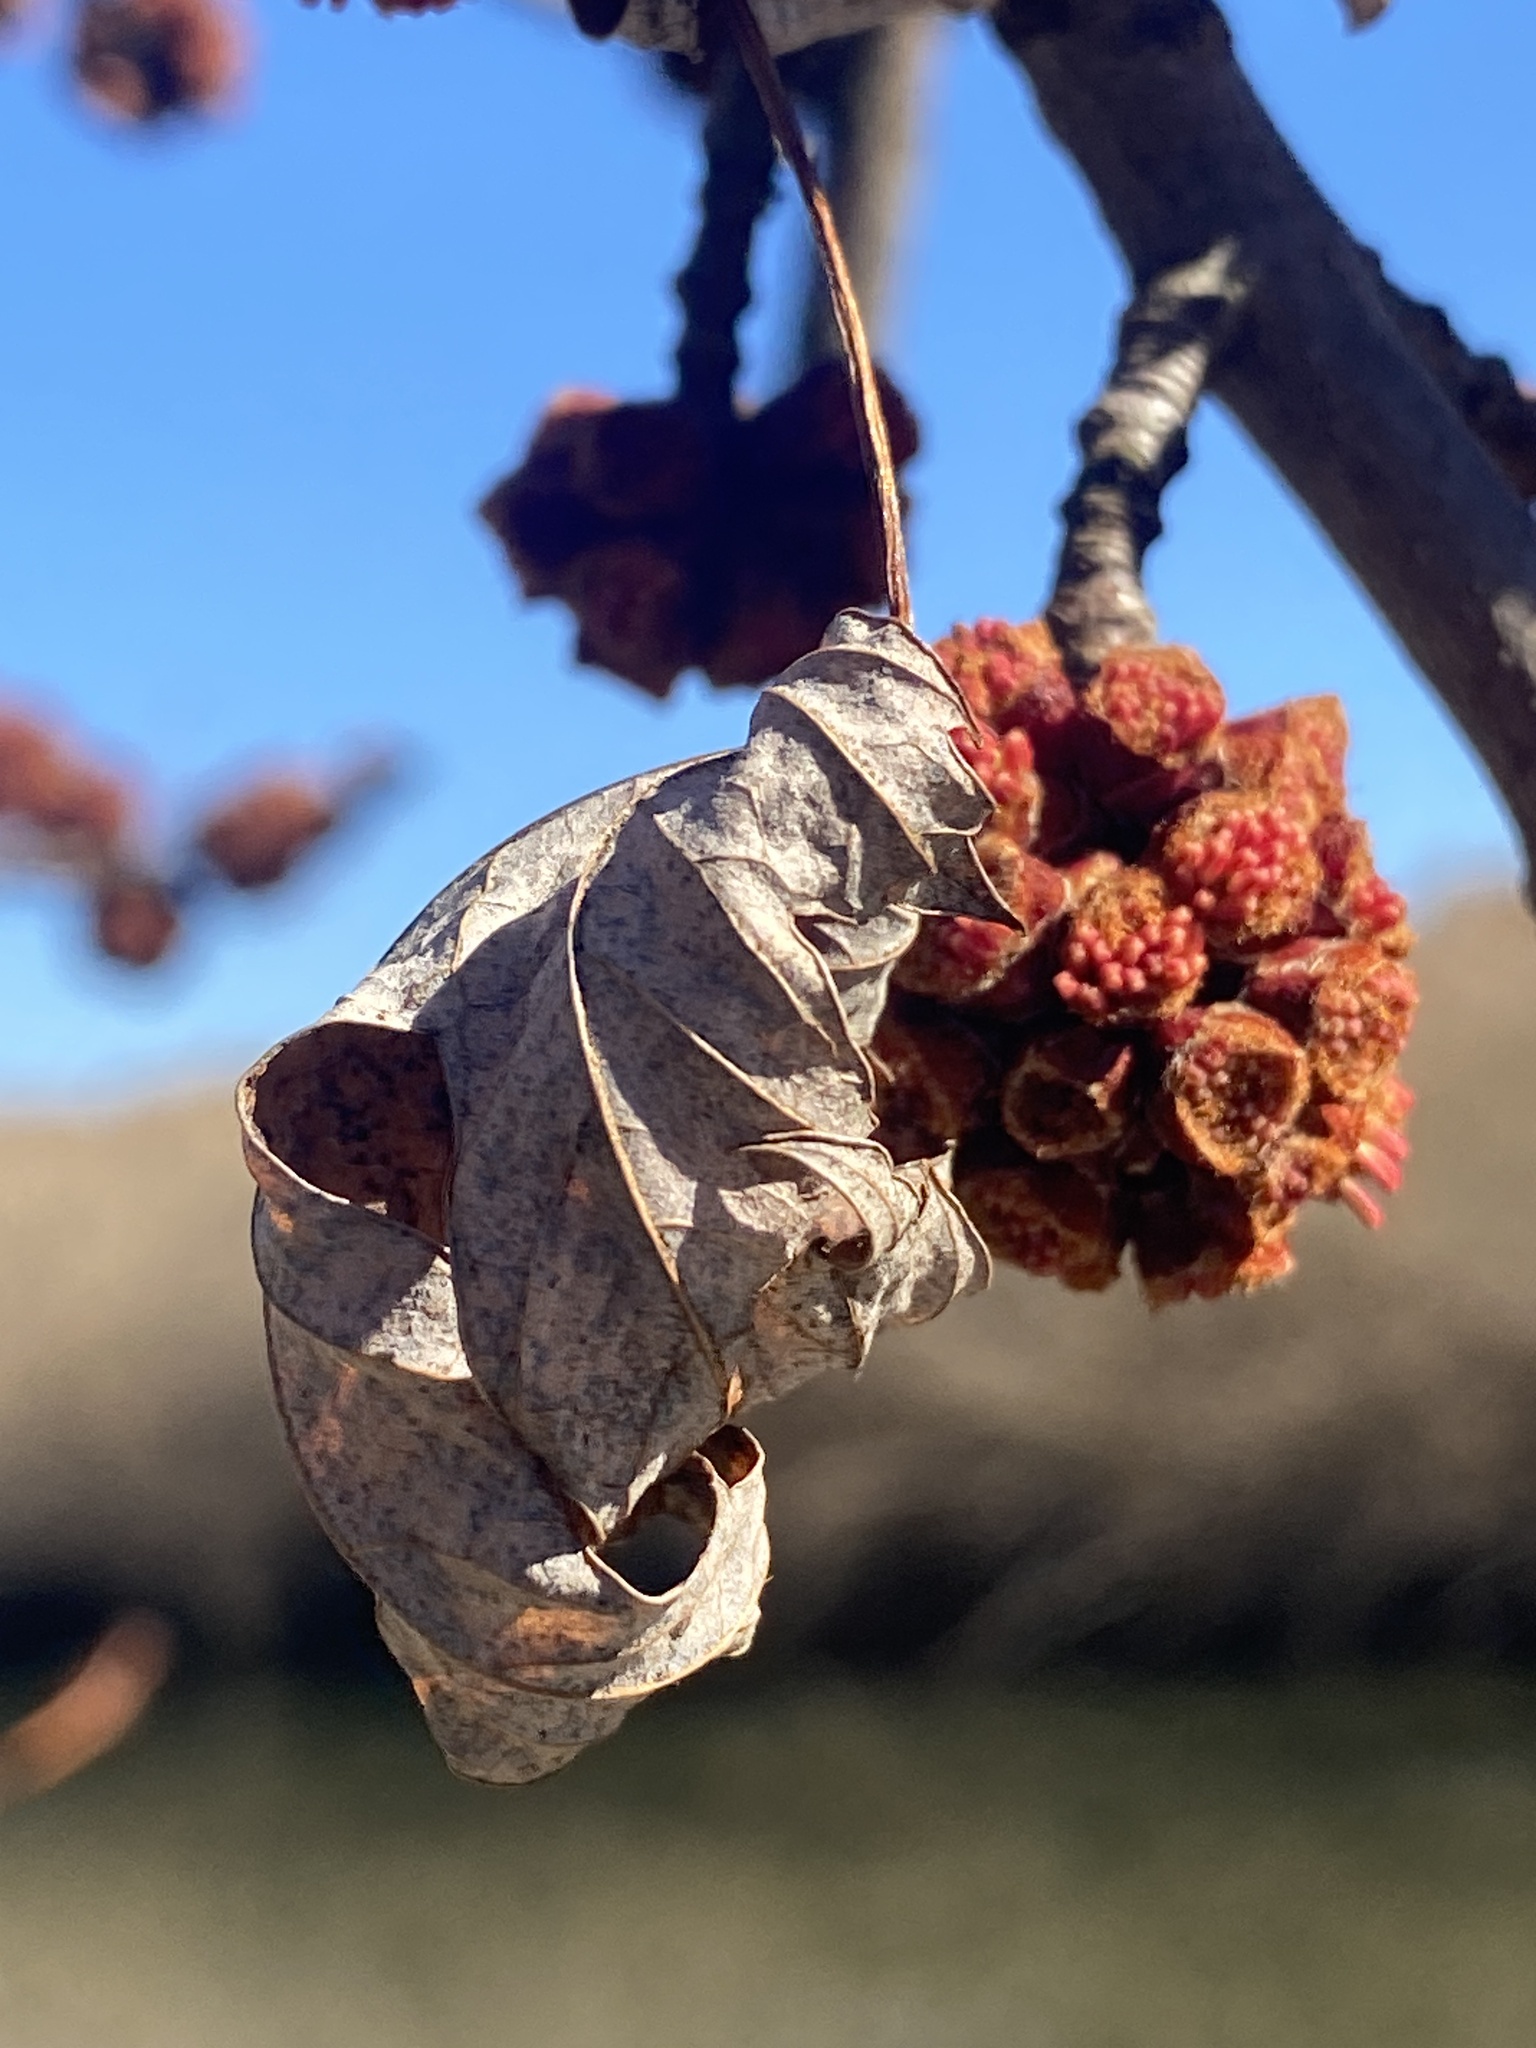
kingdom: Plantae
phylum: Tracheophyta
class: Magnoliopsida
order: Sapindales
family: Sapindaceae
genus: Acer
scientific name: Acer saccharinum
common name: Silver maple
